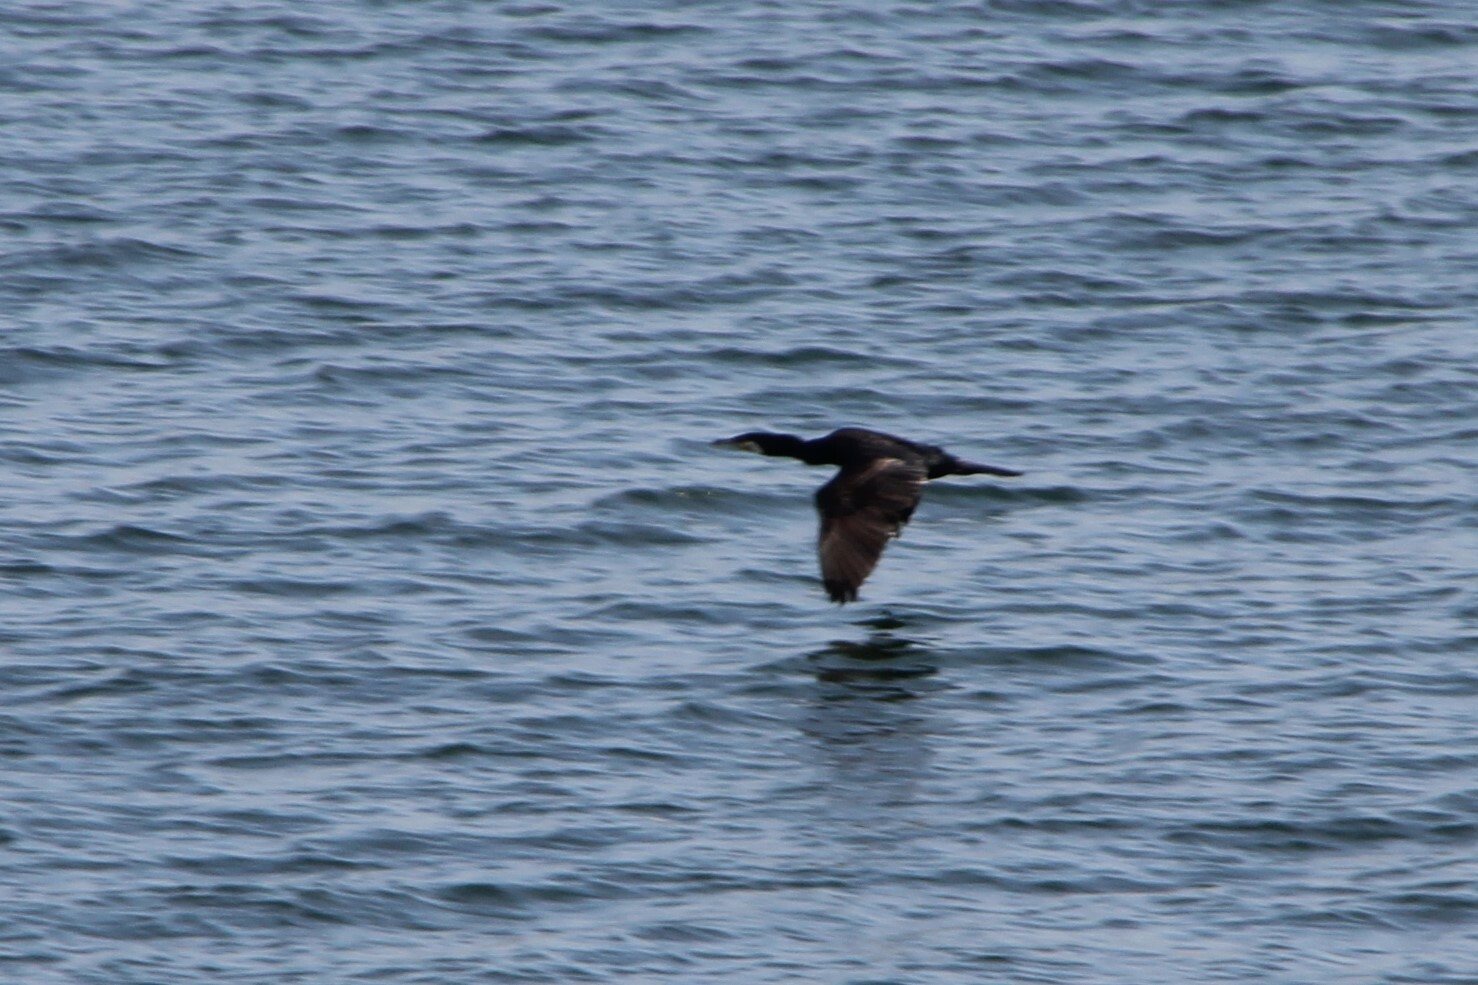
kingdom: Animalia
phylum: Chordata
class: Aves
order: Suliformes
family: Phalacrocoracidae
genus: Phalacrocorax
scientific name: Phalacrocorax carbo
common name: Great cormorant
